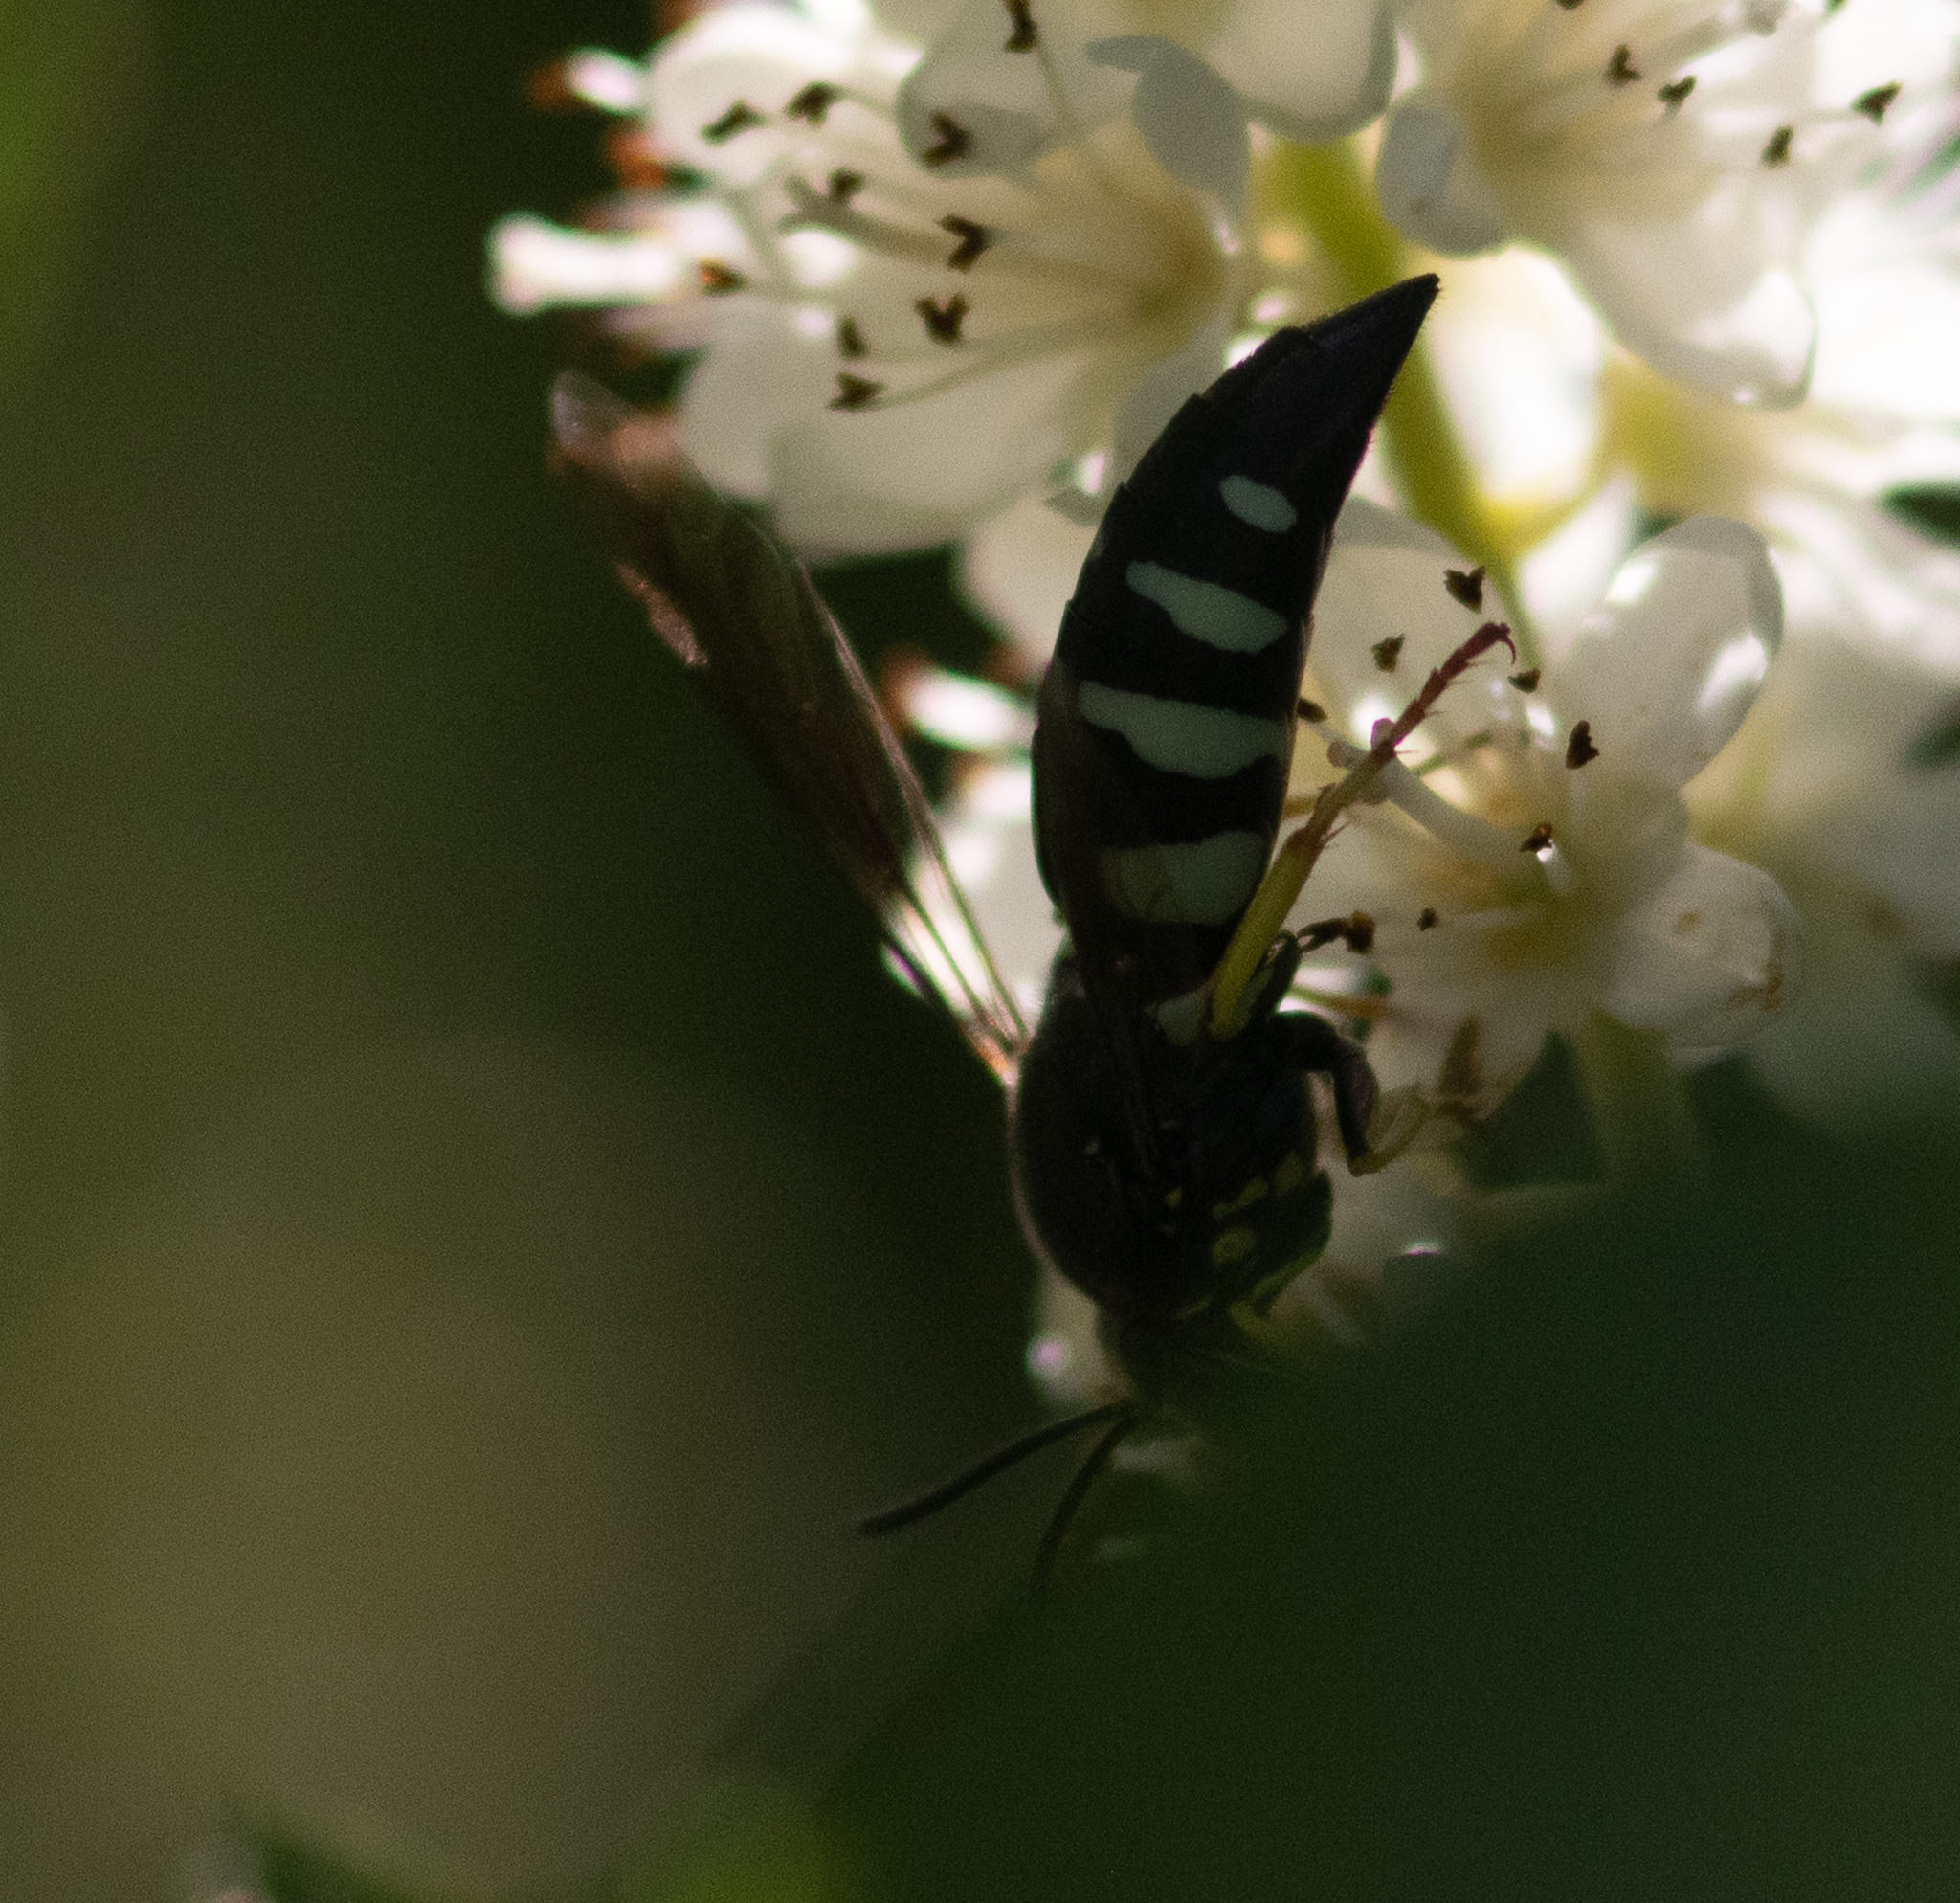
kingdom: Animalia
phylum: Arthropoda
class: Insecta
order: Hymenoptera
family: Crabronidae
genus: Bicyrtes
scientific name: Bicyrtes quadrifasciatus
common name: Four-banded stink bug hunter wasp
